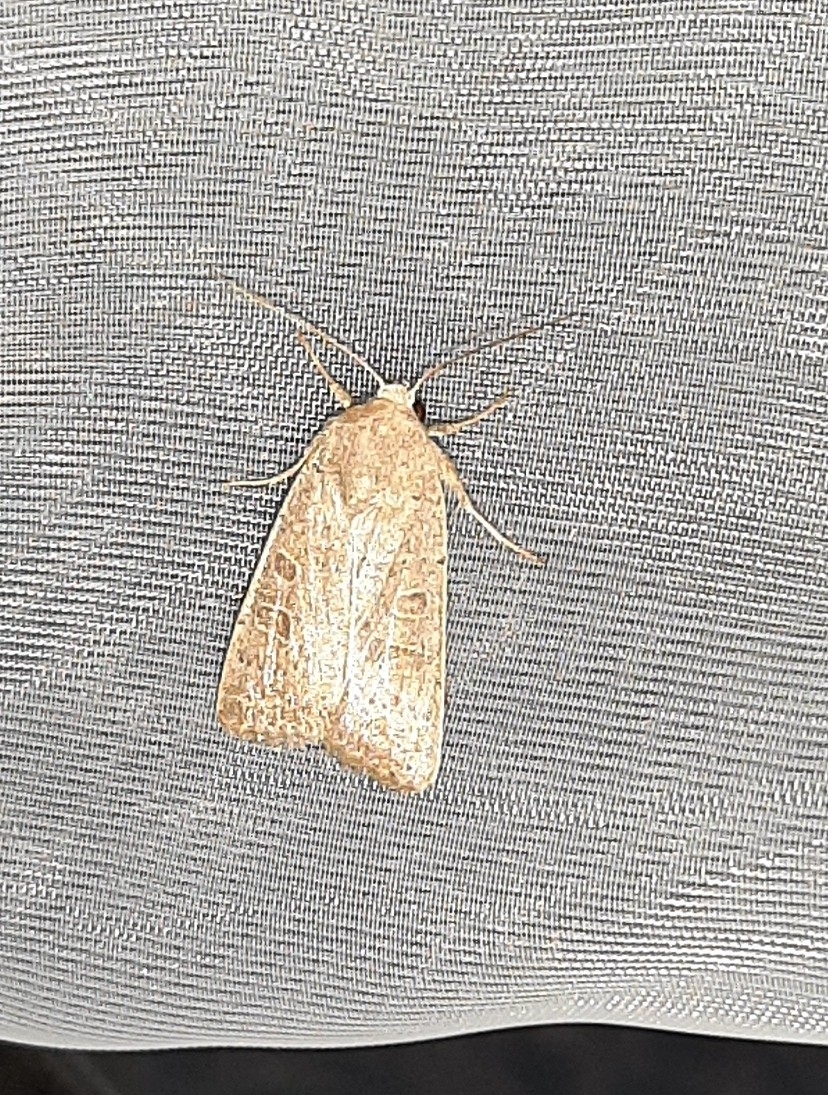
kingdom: Animalia
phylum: Arthropoda
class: Insecta
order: Lepidoptera
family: Noctuidae
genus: Hoplodrina
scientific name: Hoplodrina ambigua
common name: Vine's rustic
